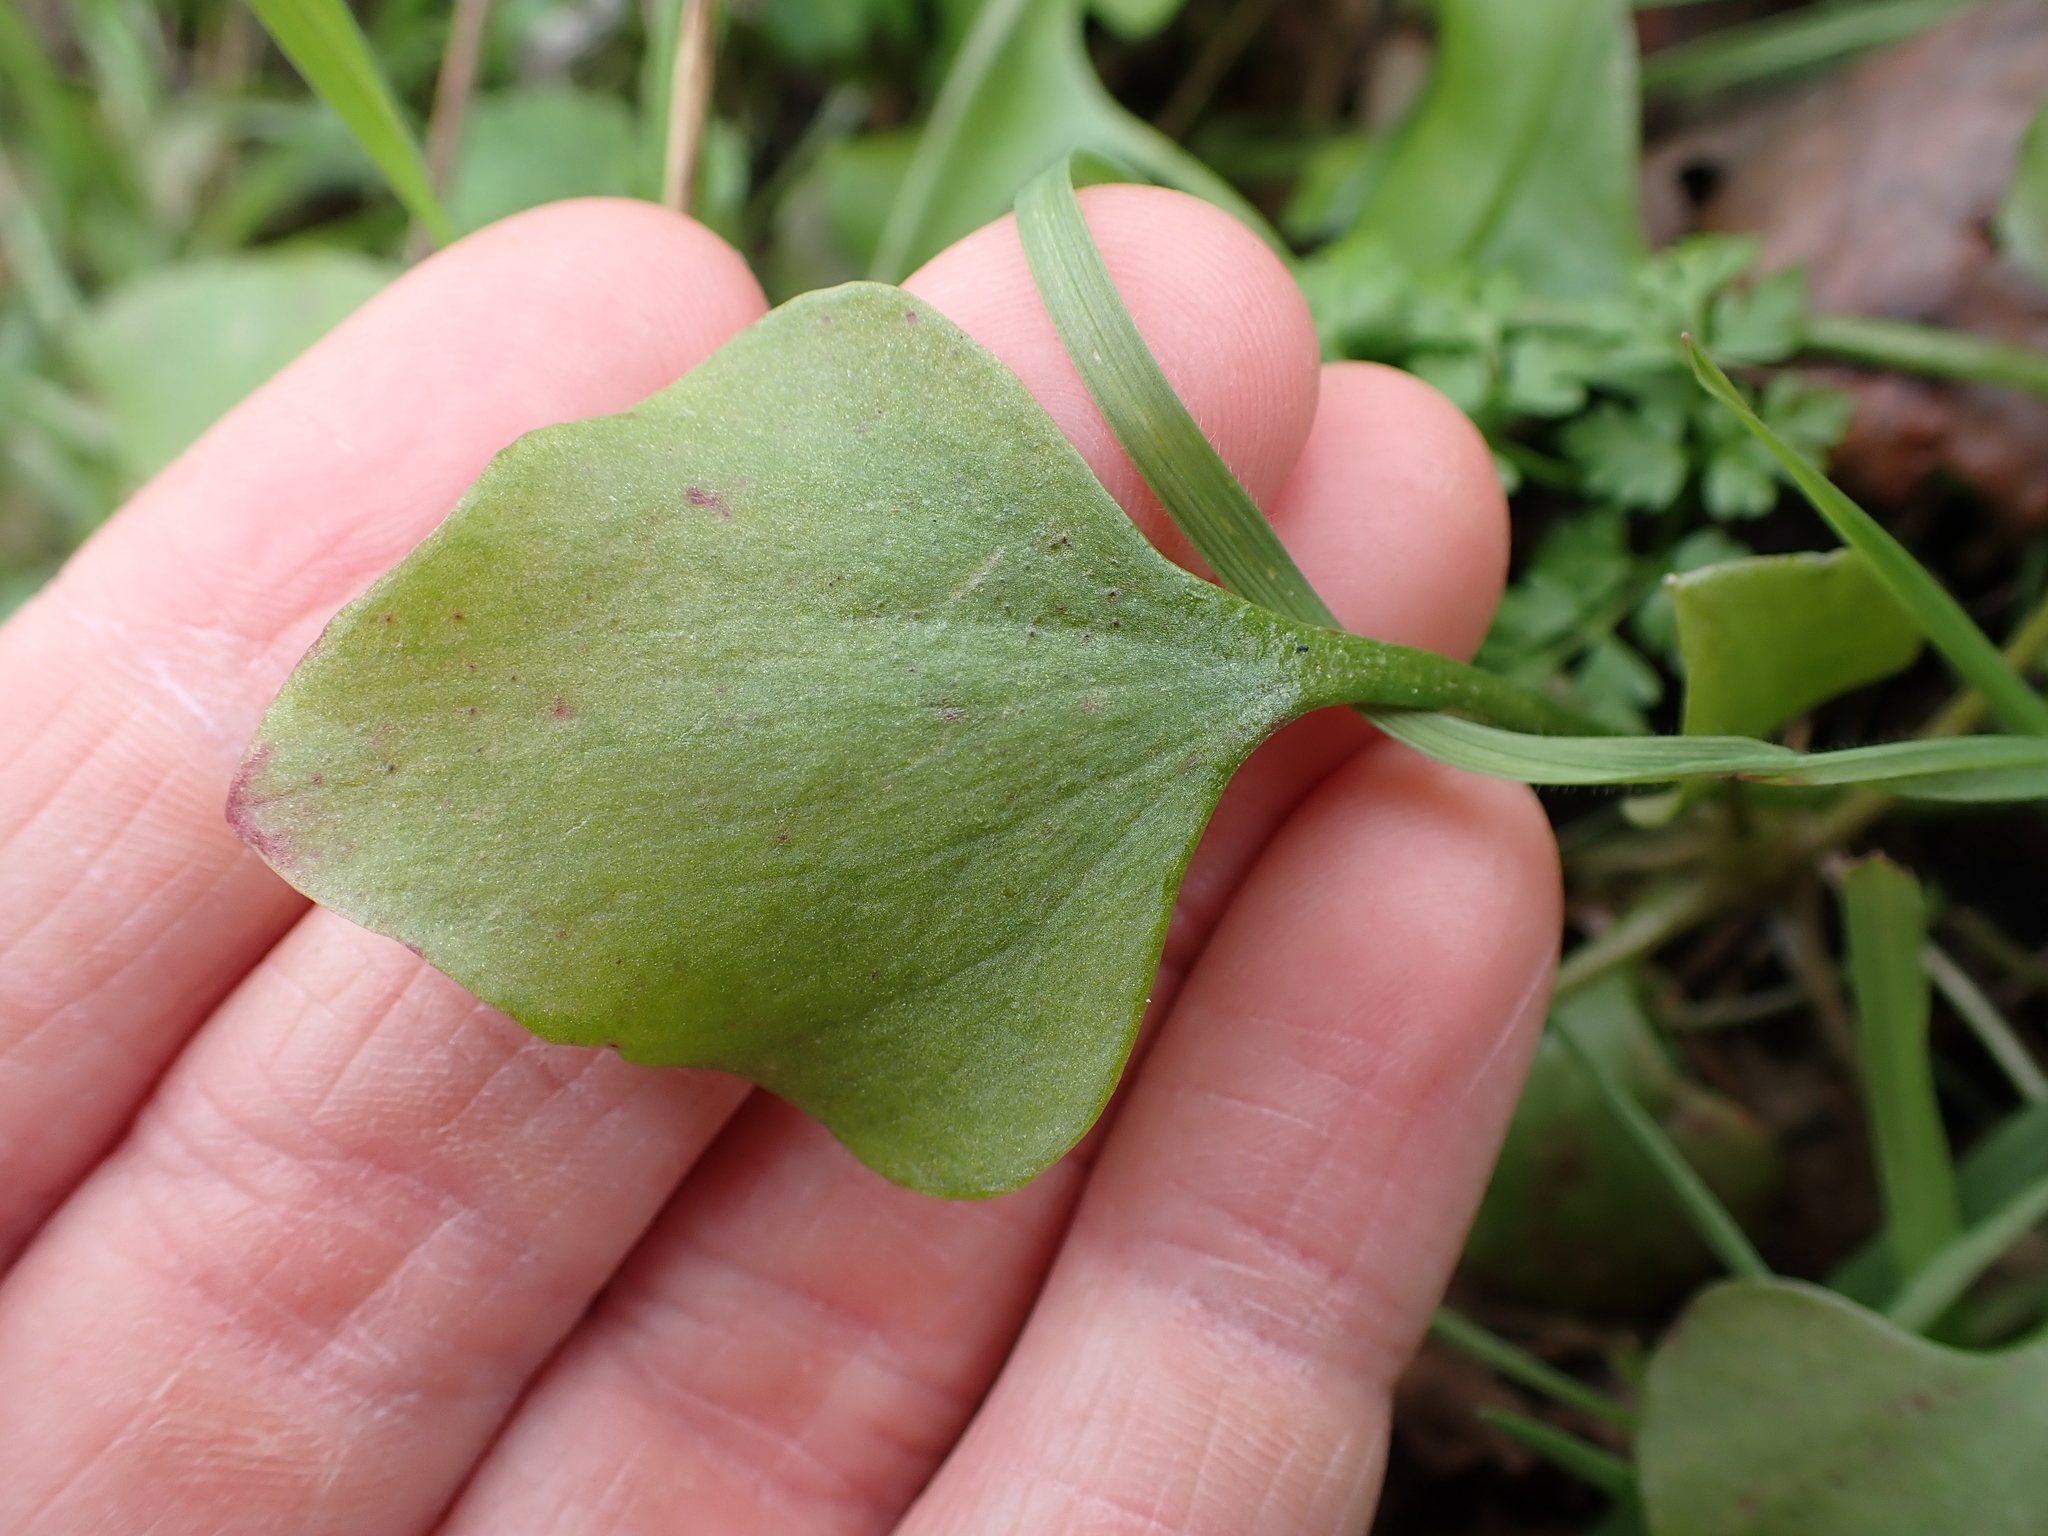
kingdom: Plantae
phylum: Tracheophyta
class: Magnoliopsida
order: Caryophyllales
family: Montiaceae
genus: Claytonia
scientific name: Claytonia perfoliata
